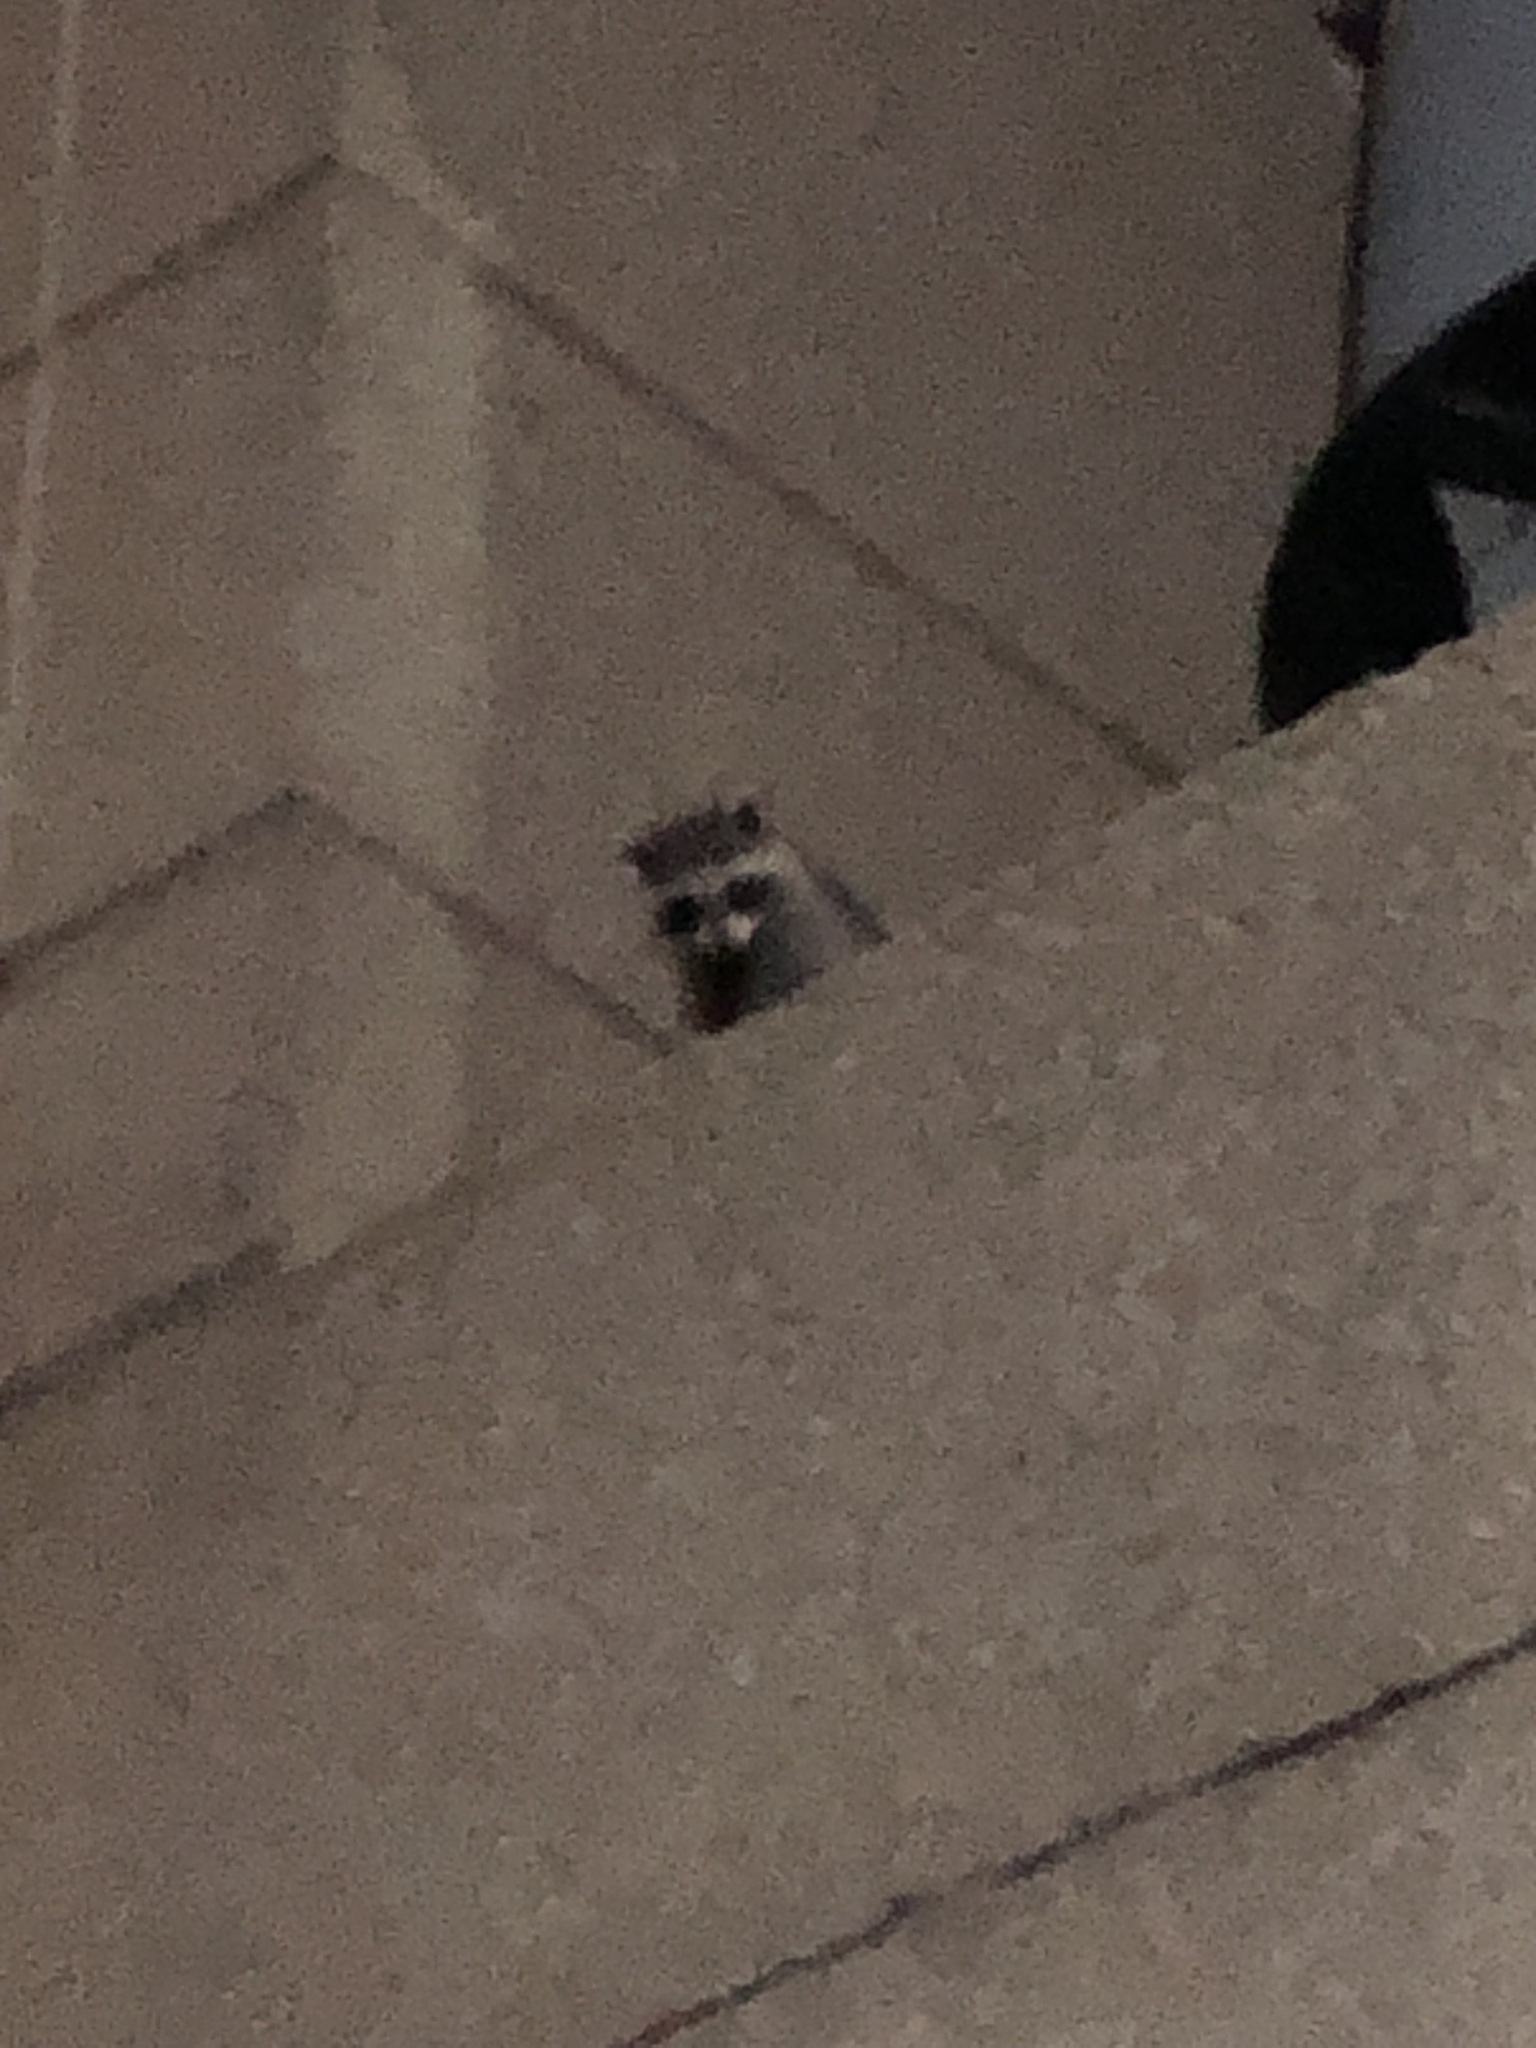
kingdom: Animalia
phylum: Chordata
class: Mammalia
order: Carnivora
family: Procyonidae
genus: Procyon
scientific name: Procyon lotor
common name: Raccoon
